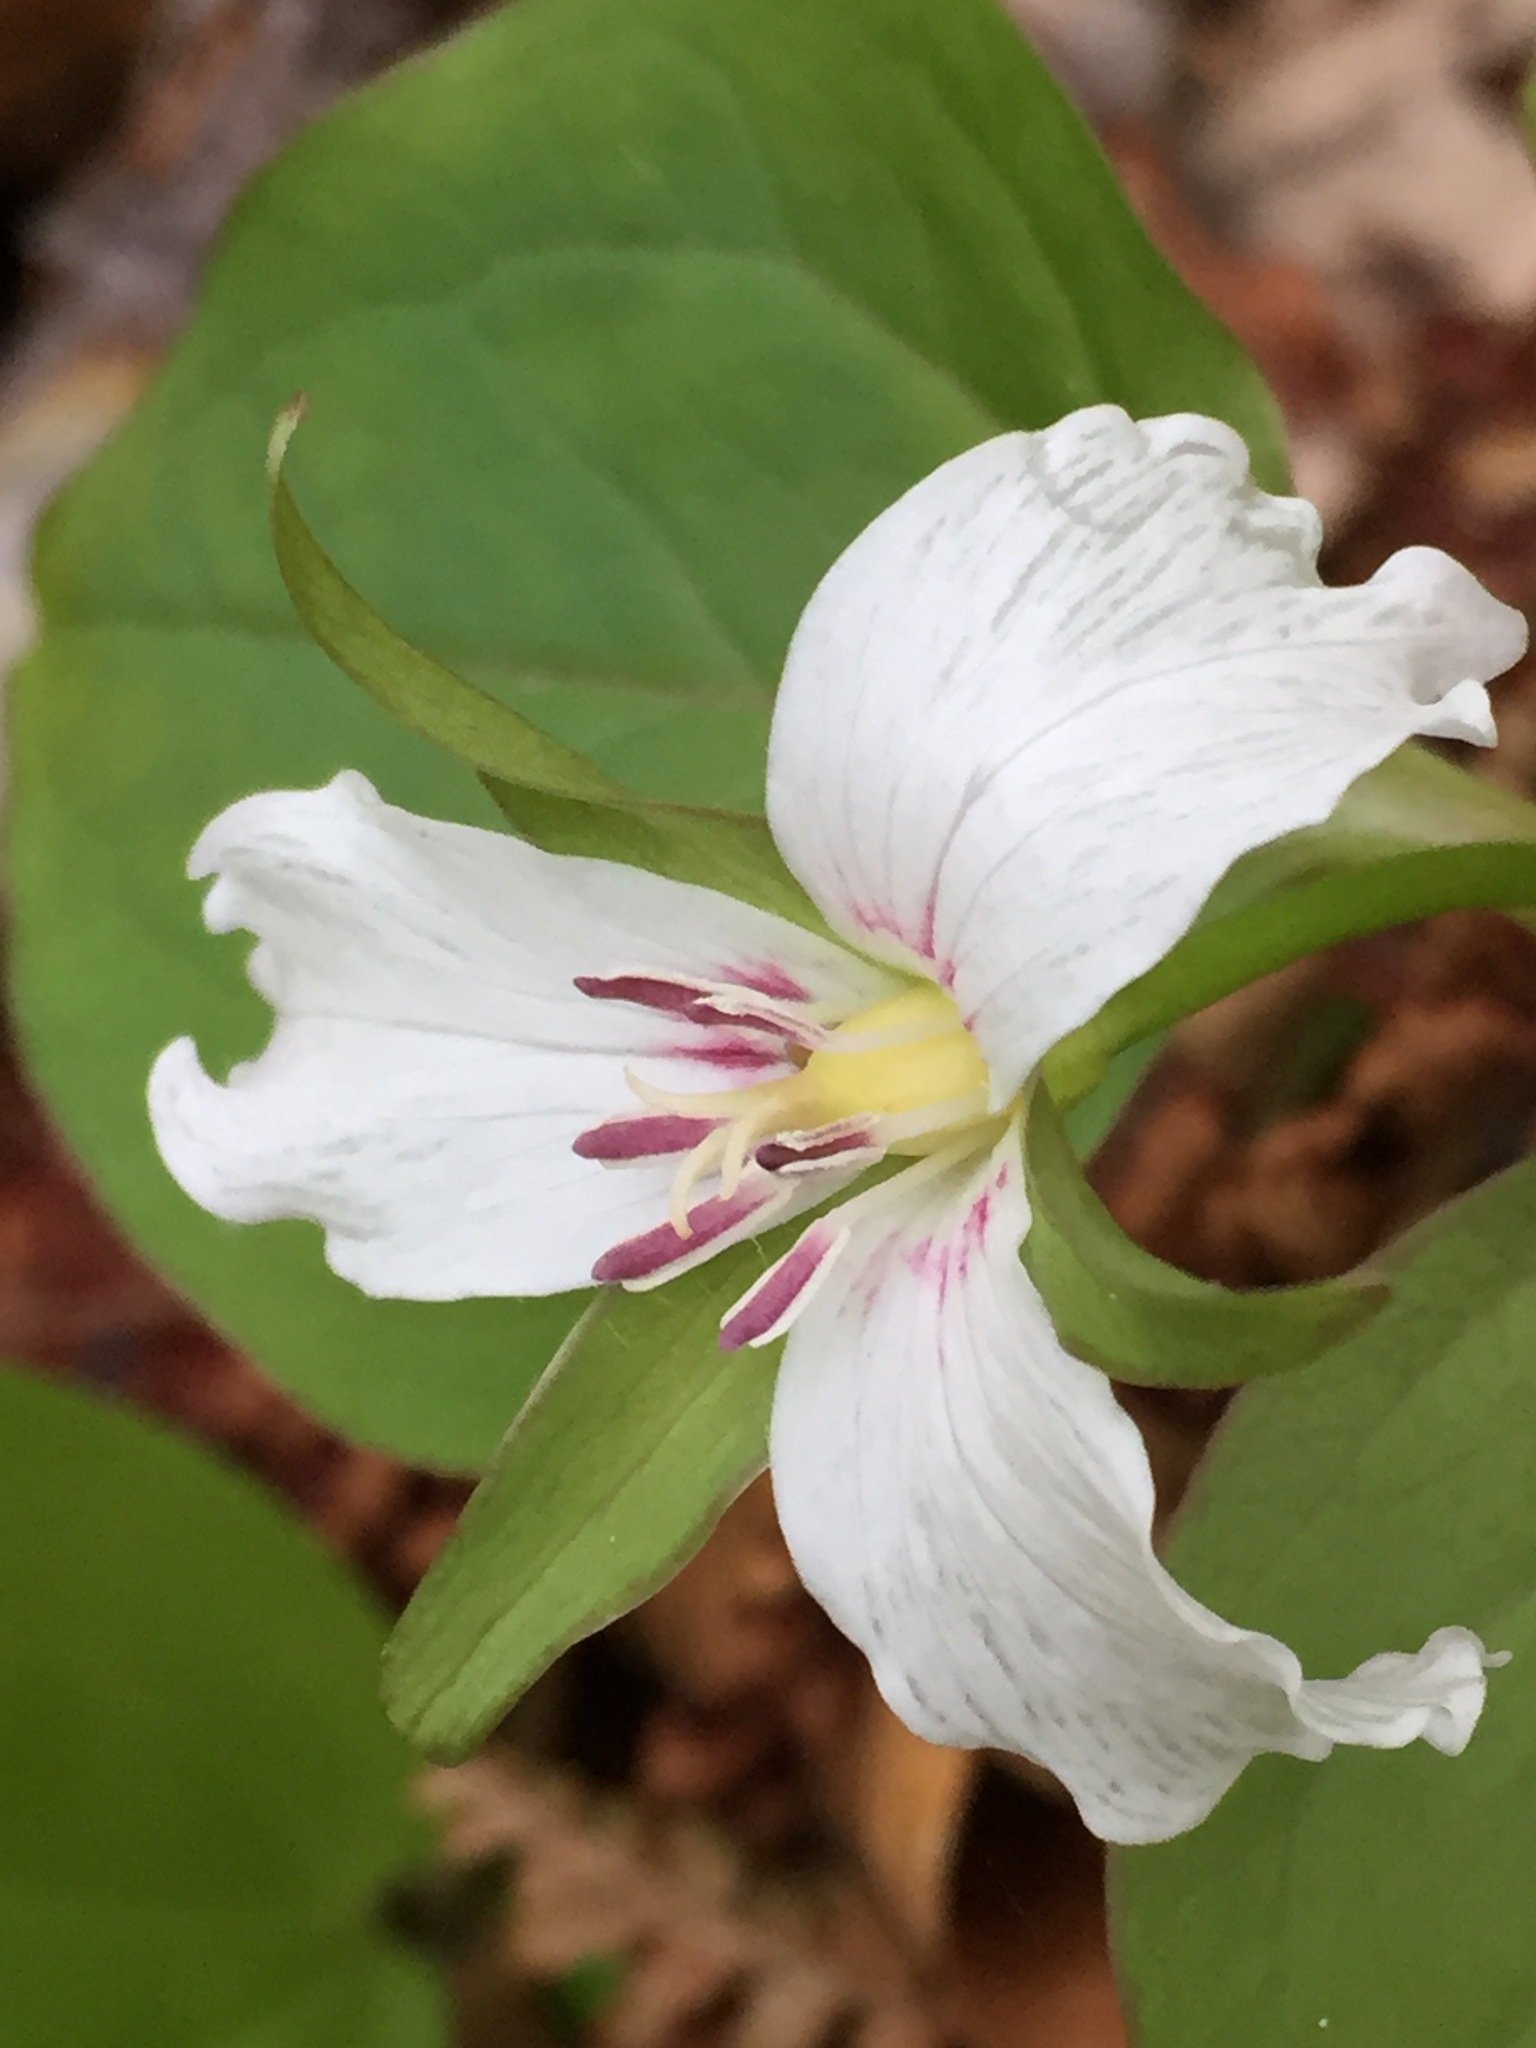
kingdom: Plantae
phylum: Tracheophyta
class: Liliopsida
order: Liliales
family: Melanthiaceae
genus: Trillium
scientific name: Trillium undulatum
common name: Paint trillium
